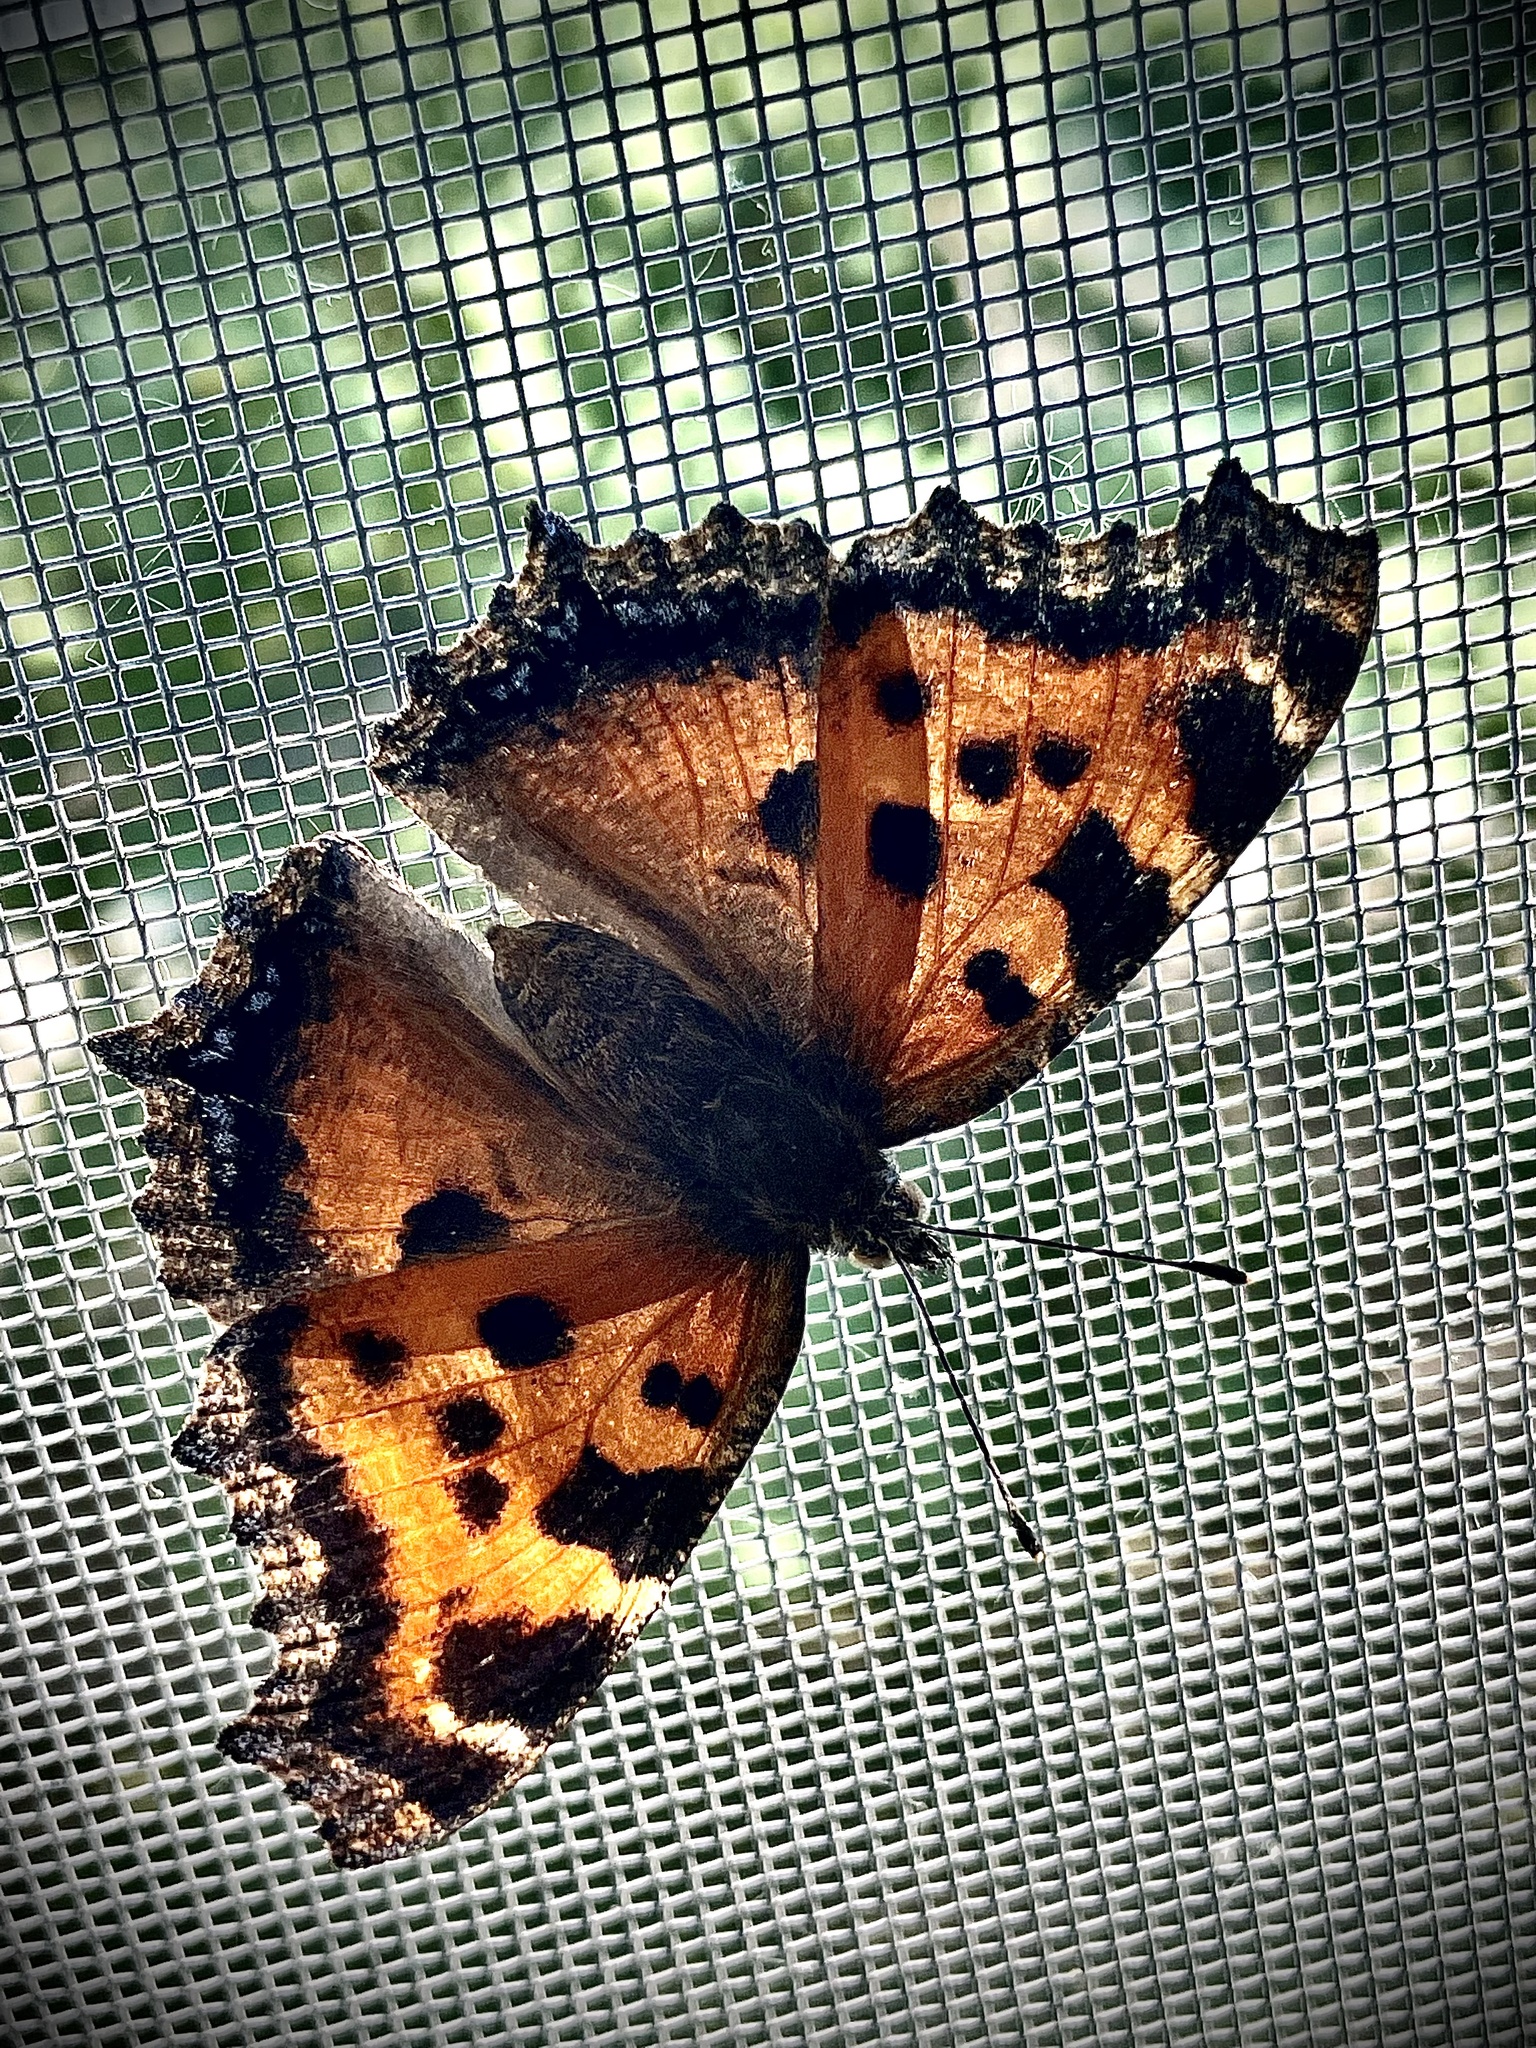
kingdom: Animalia
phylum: Arthropoda
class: Insecta
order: Lepidoptera
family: Nymphalidae
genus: Nymphalis
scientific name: Nymphalis xanthomelas
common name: Scarce tortoiseshell
